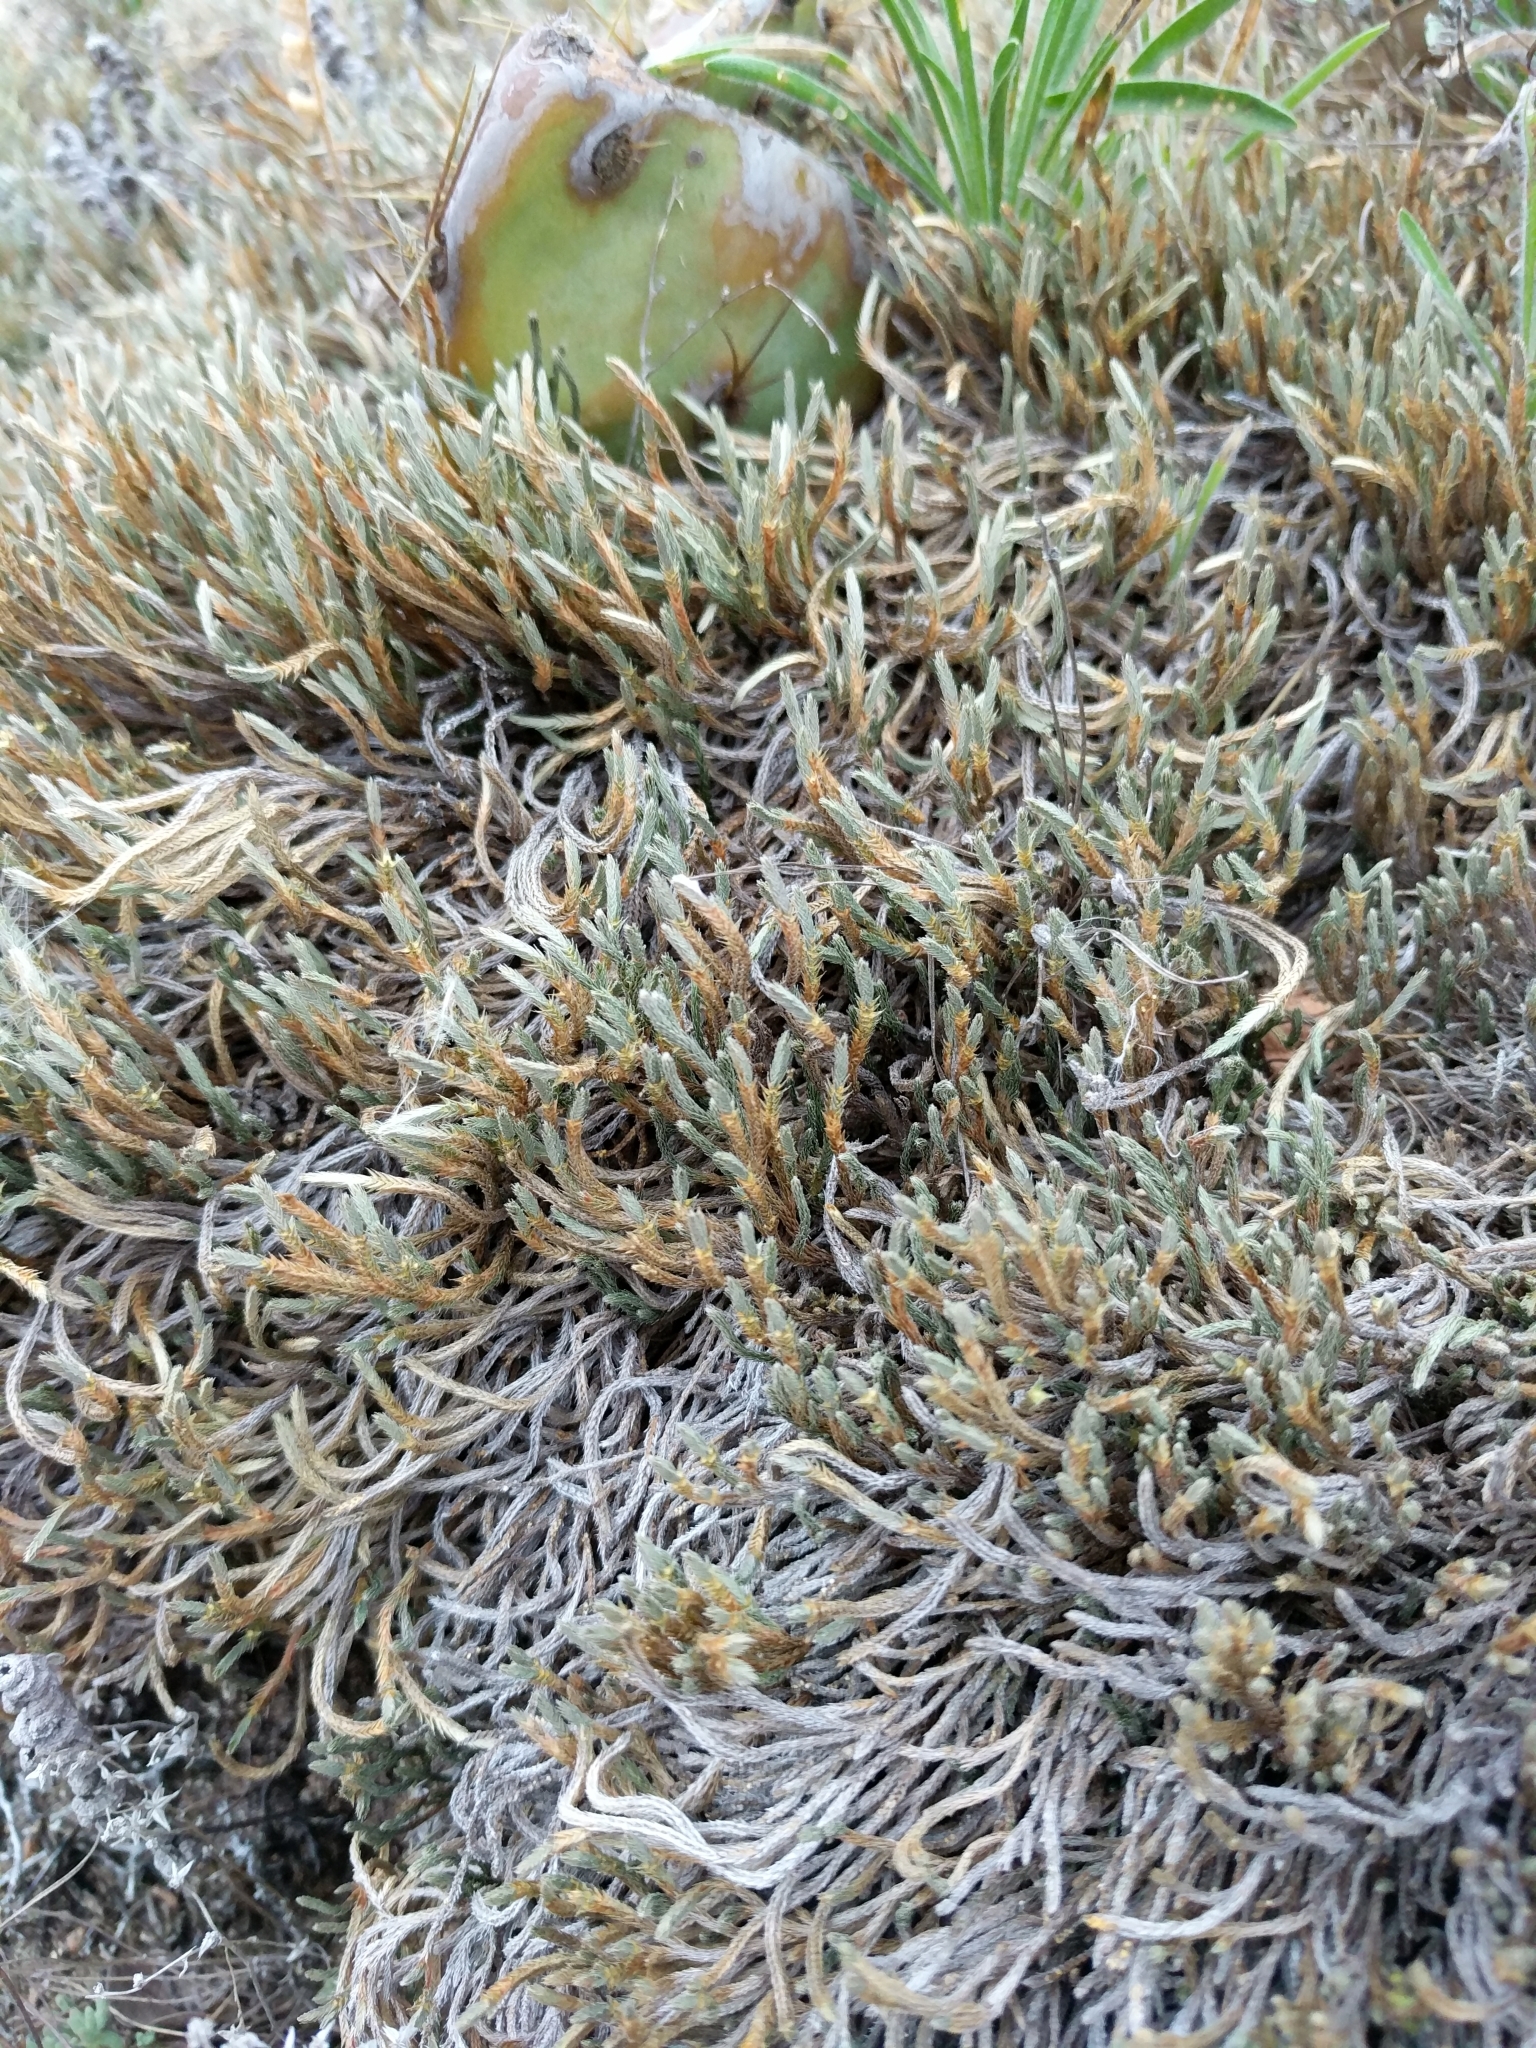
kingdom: Plantae
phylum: Tracheophyta
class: Lycopodiopsida
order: Selaginellales
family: Selaginellaceae
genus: Selaginella
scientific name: Selaginella corallina
